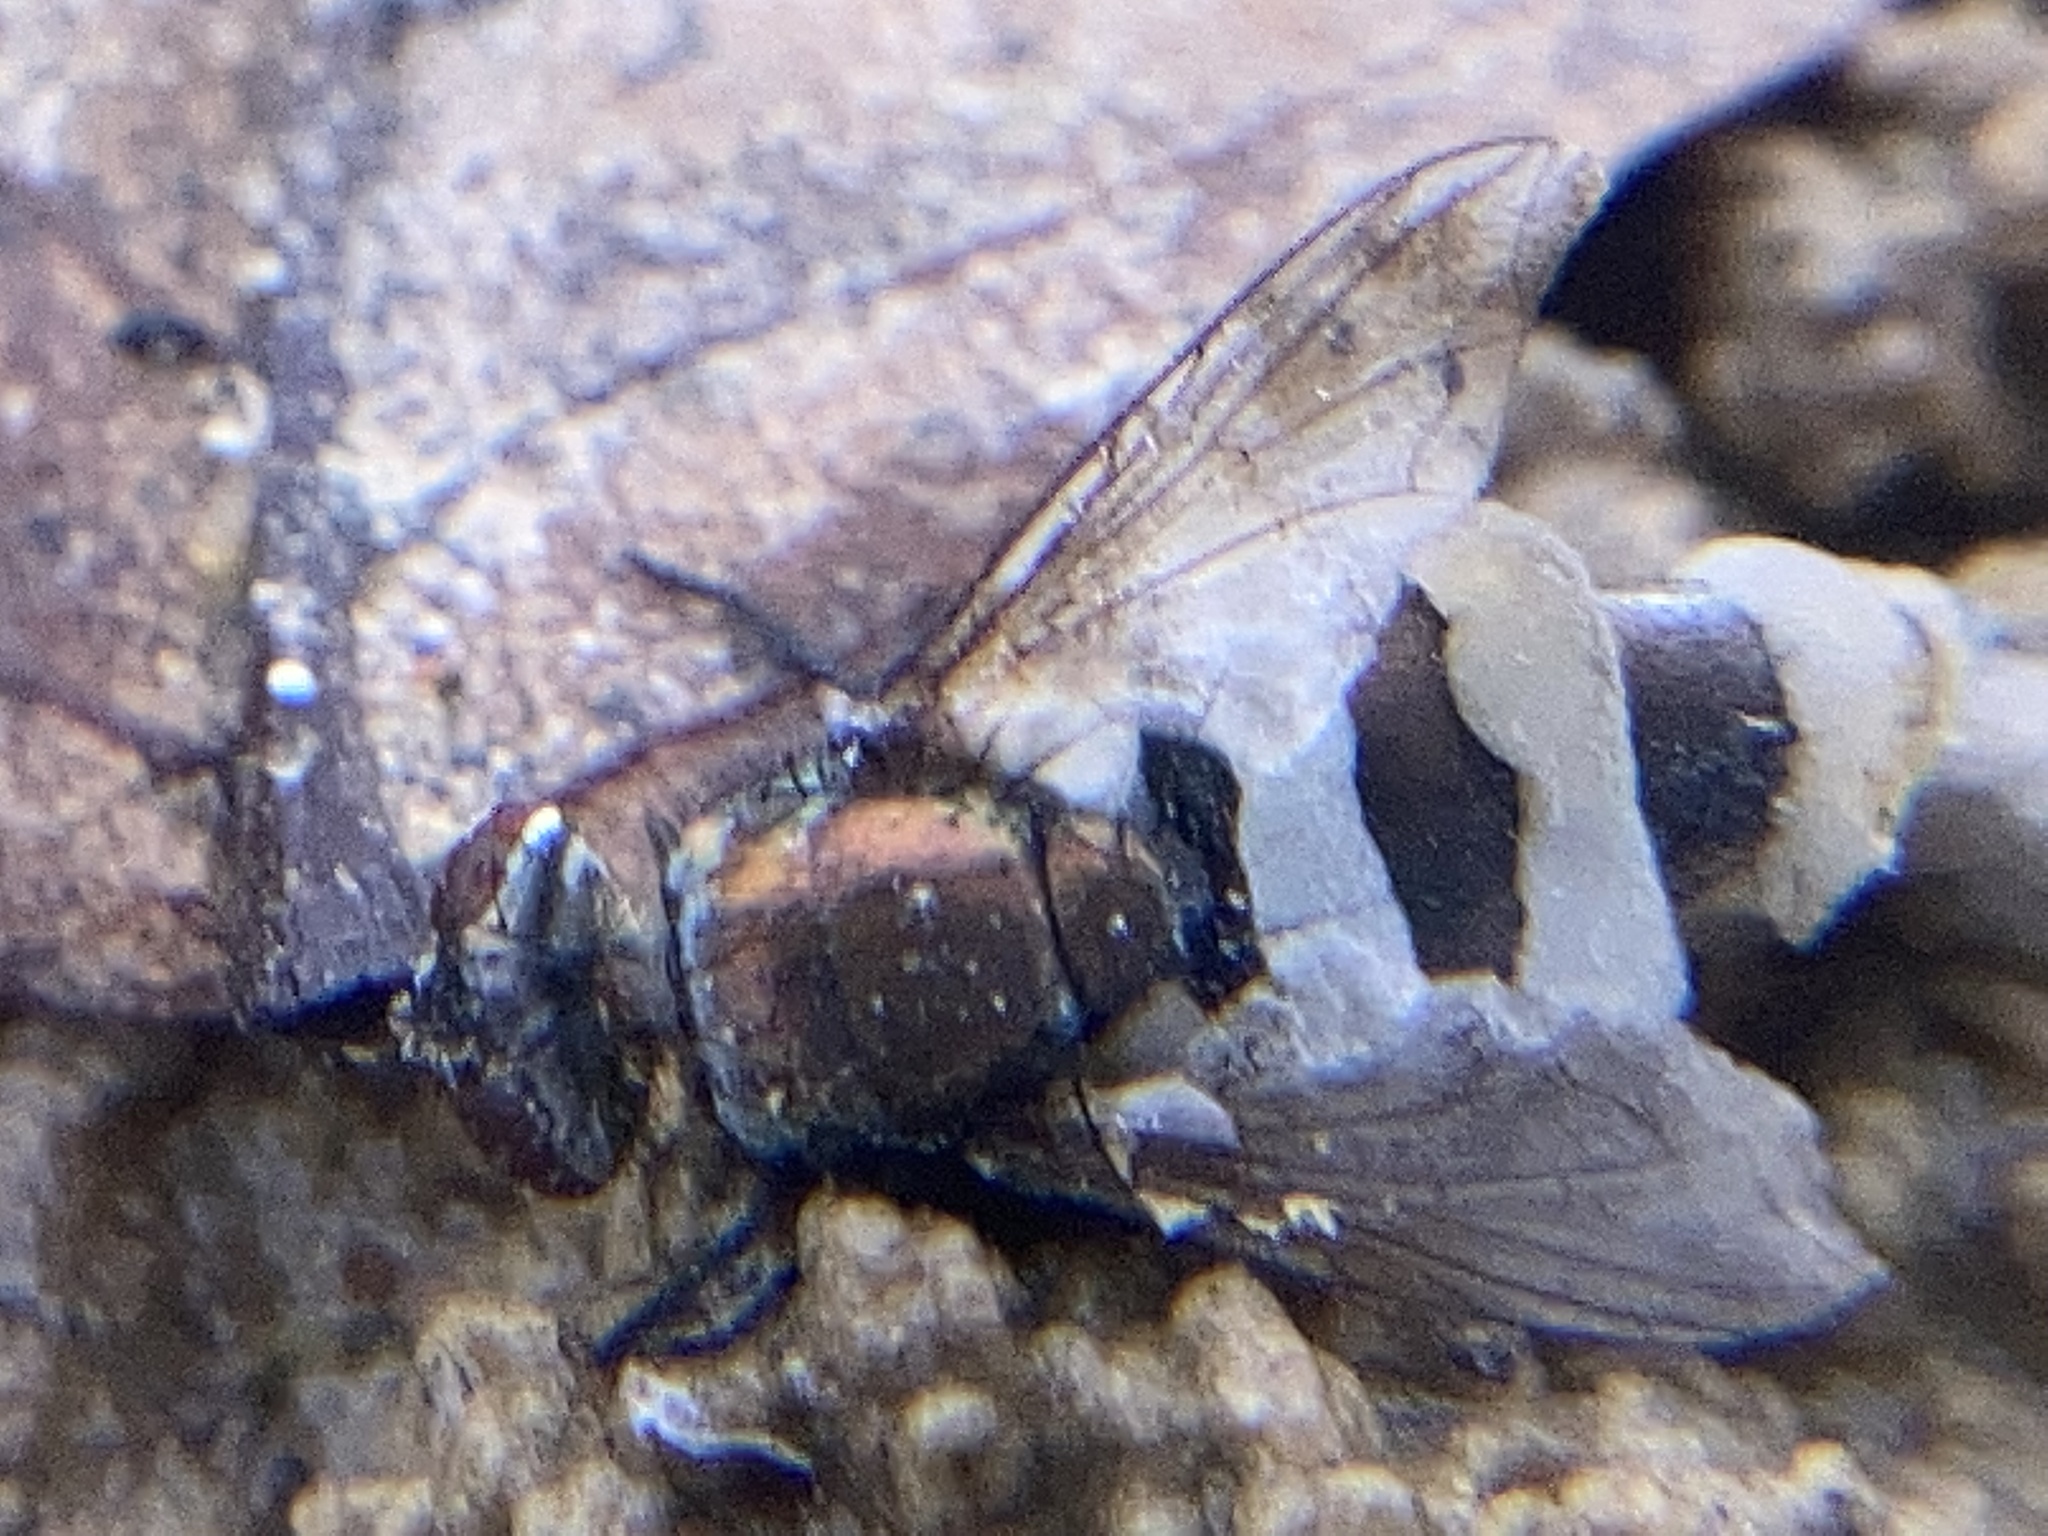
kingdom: Fungi
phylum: Entomophthoromycota
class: Entomophthoromycetes
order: Entomophthorales
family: Entomophthoraceae
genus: Entomophthora
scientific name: Entomophthora muscae
